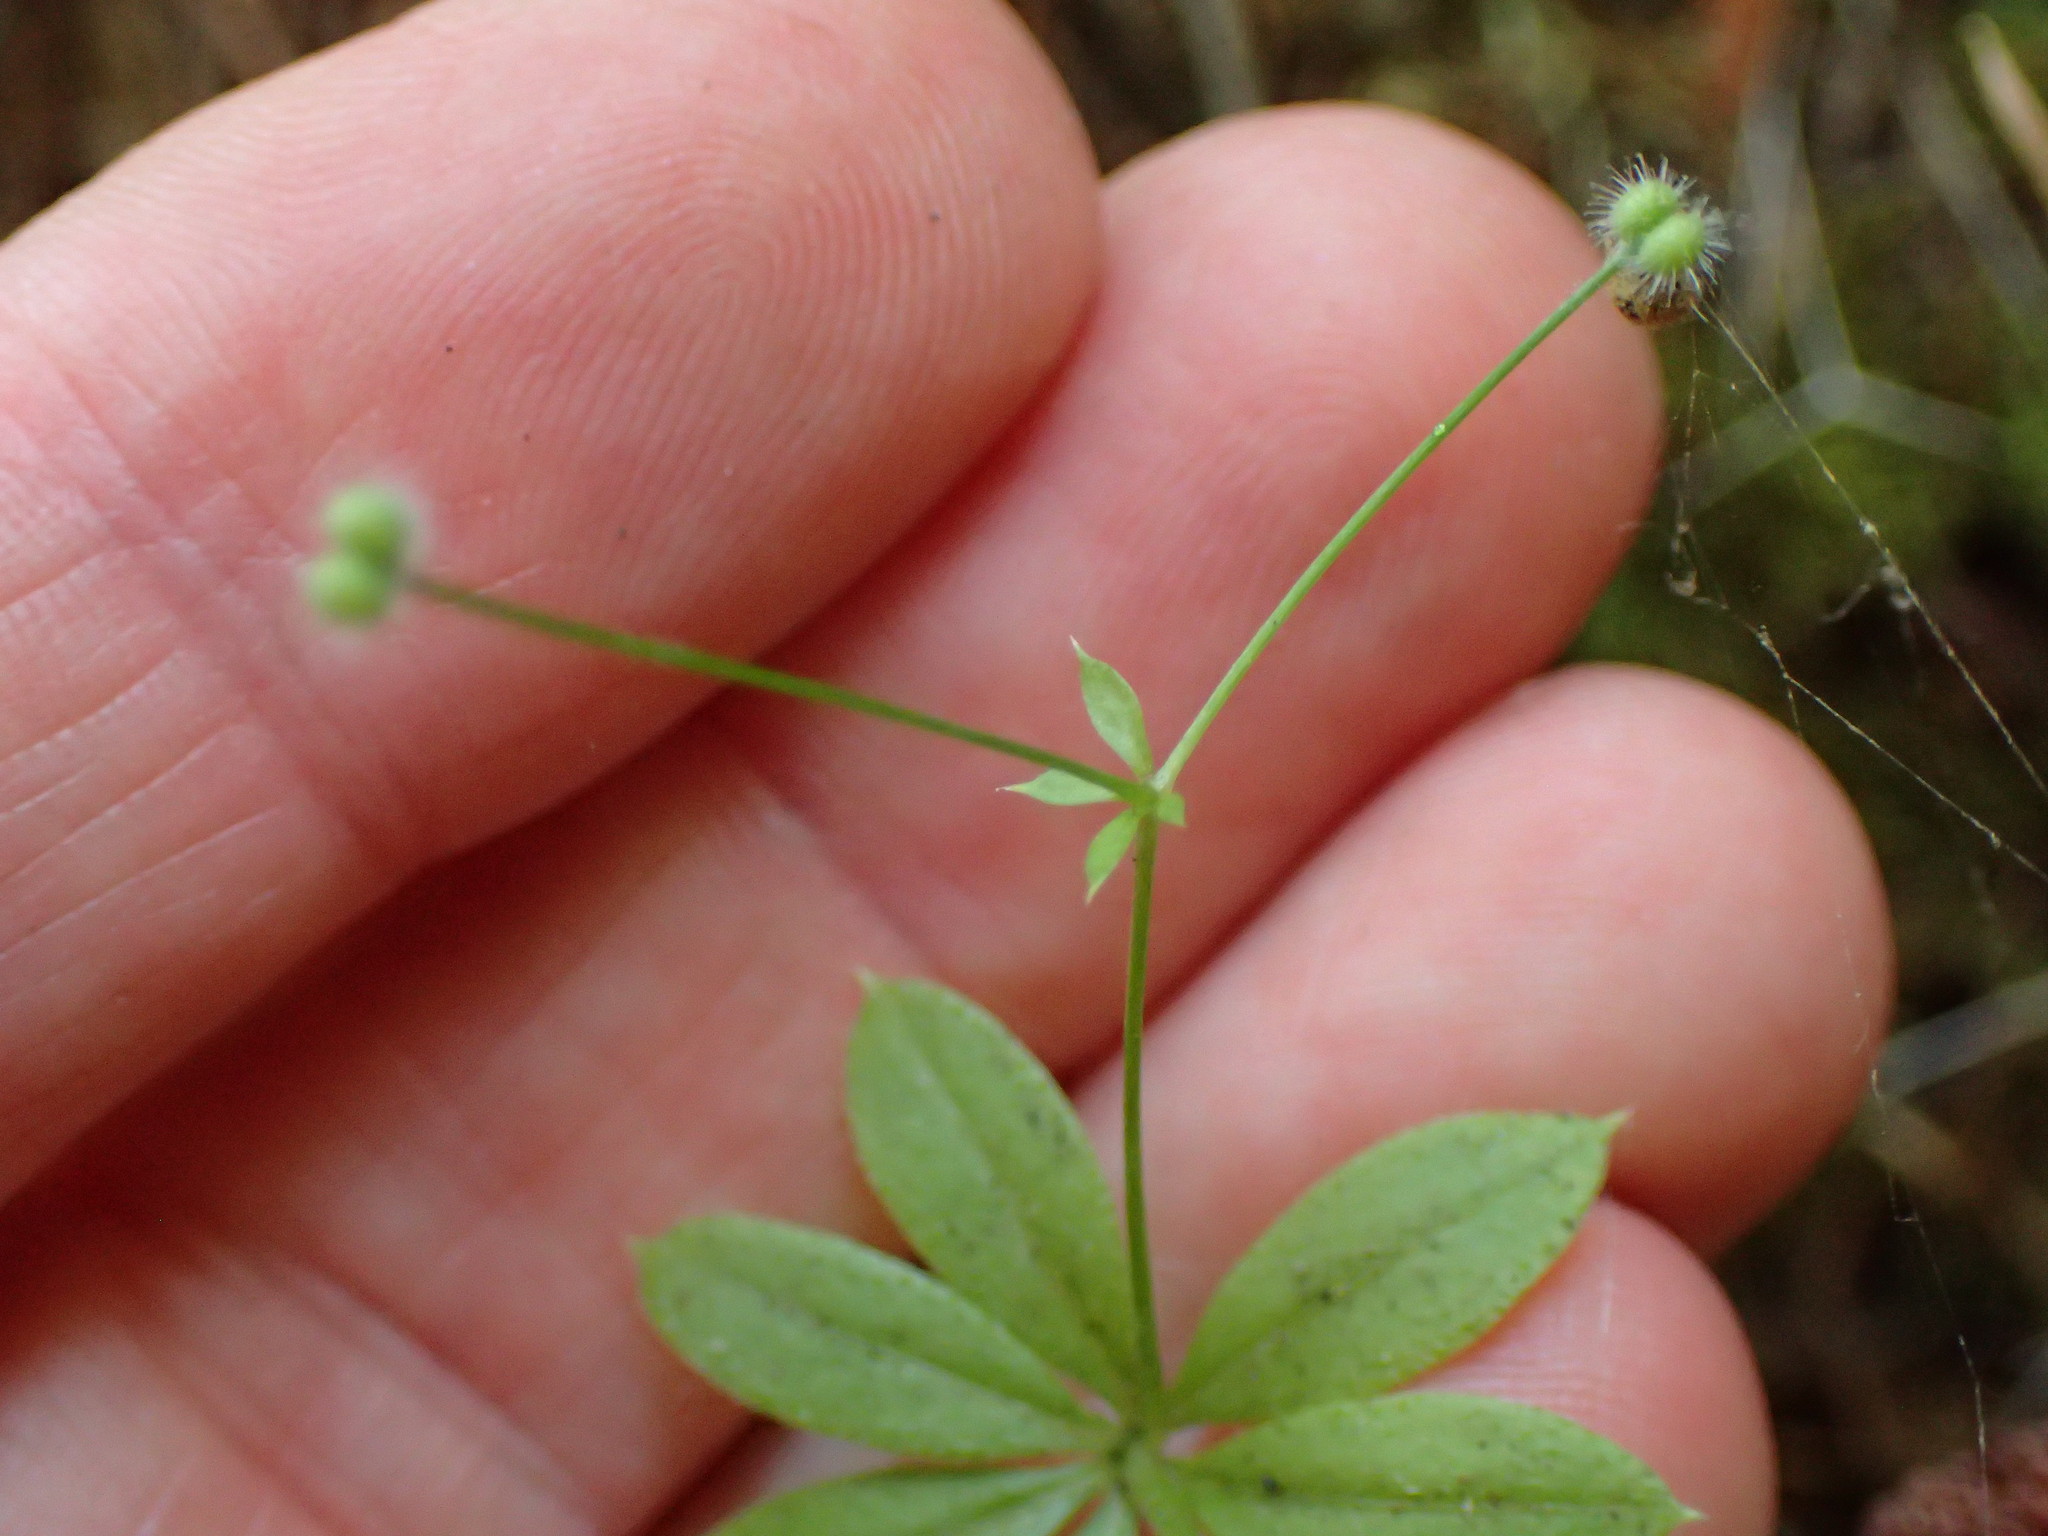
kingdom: Plantae
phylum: Tracheophyta
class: Magnoliopsida
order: Gentianales
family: Rubiaceae
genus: Galium
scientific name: Galium triflorum
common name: Fragrant bedstraw
